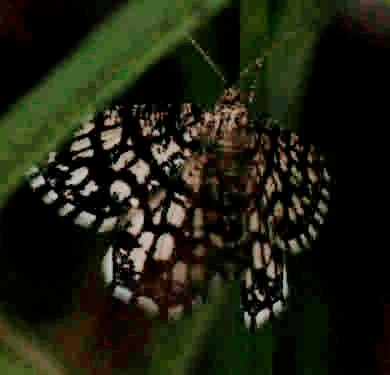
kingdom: Animalia
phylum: Arthropoda
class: Insecta
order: Lepidoptera
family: Geometridae
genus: Chiasmia
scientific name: Chiasmia clathrata
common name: Latticed heath
